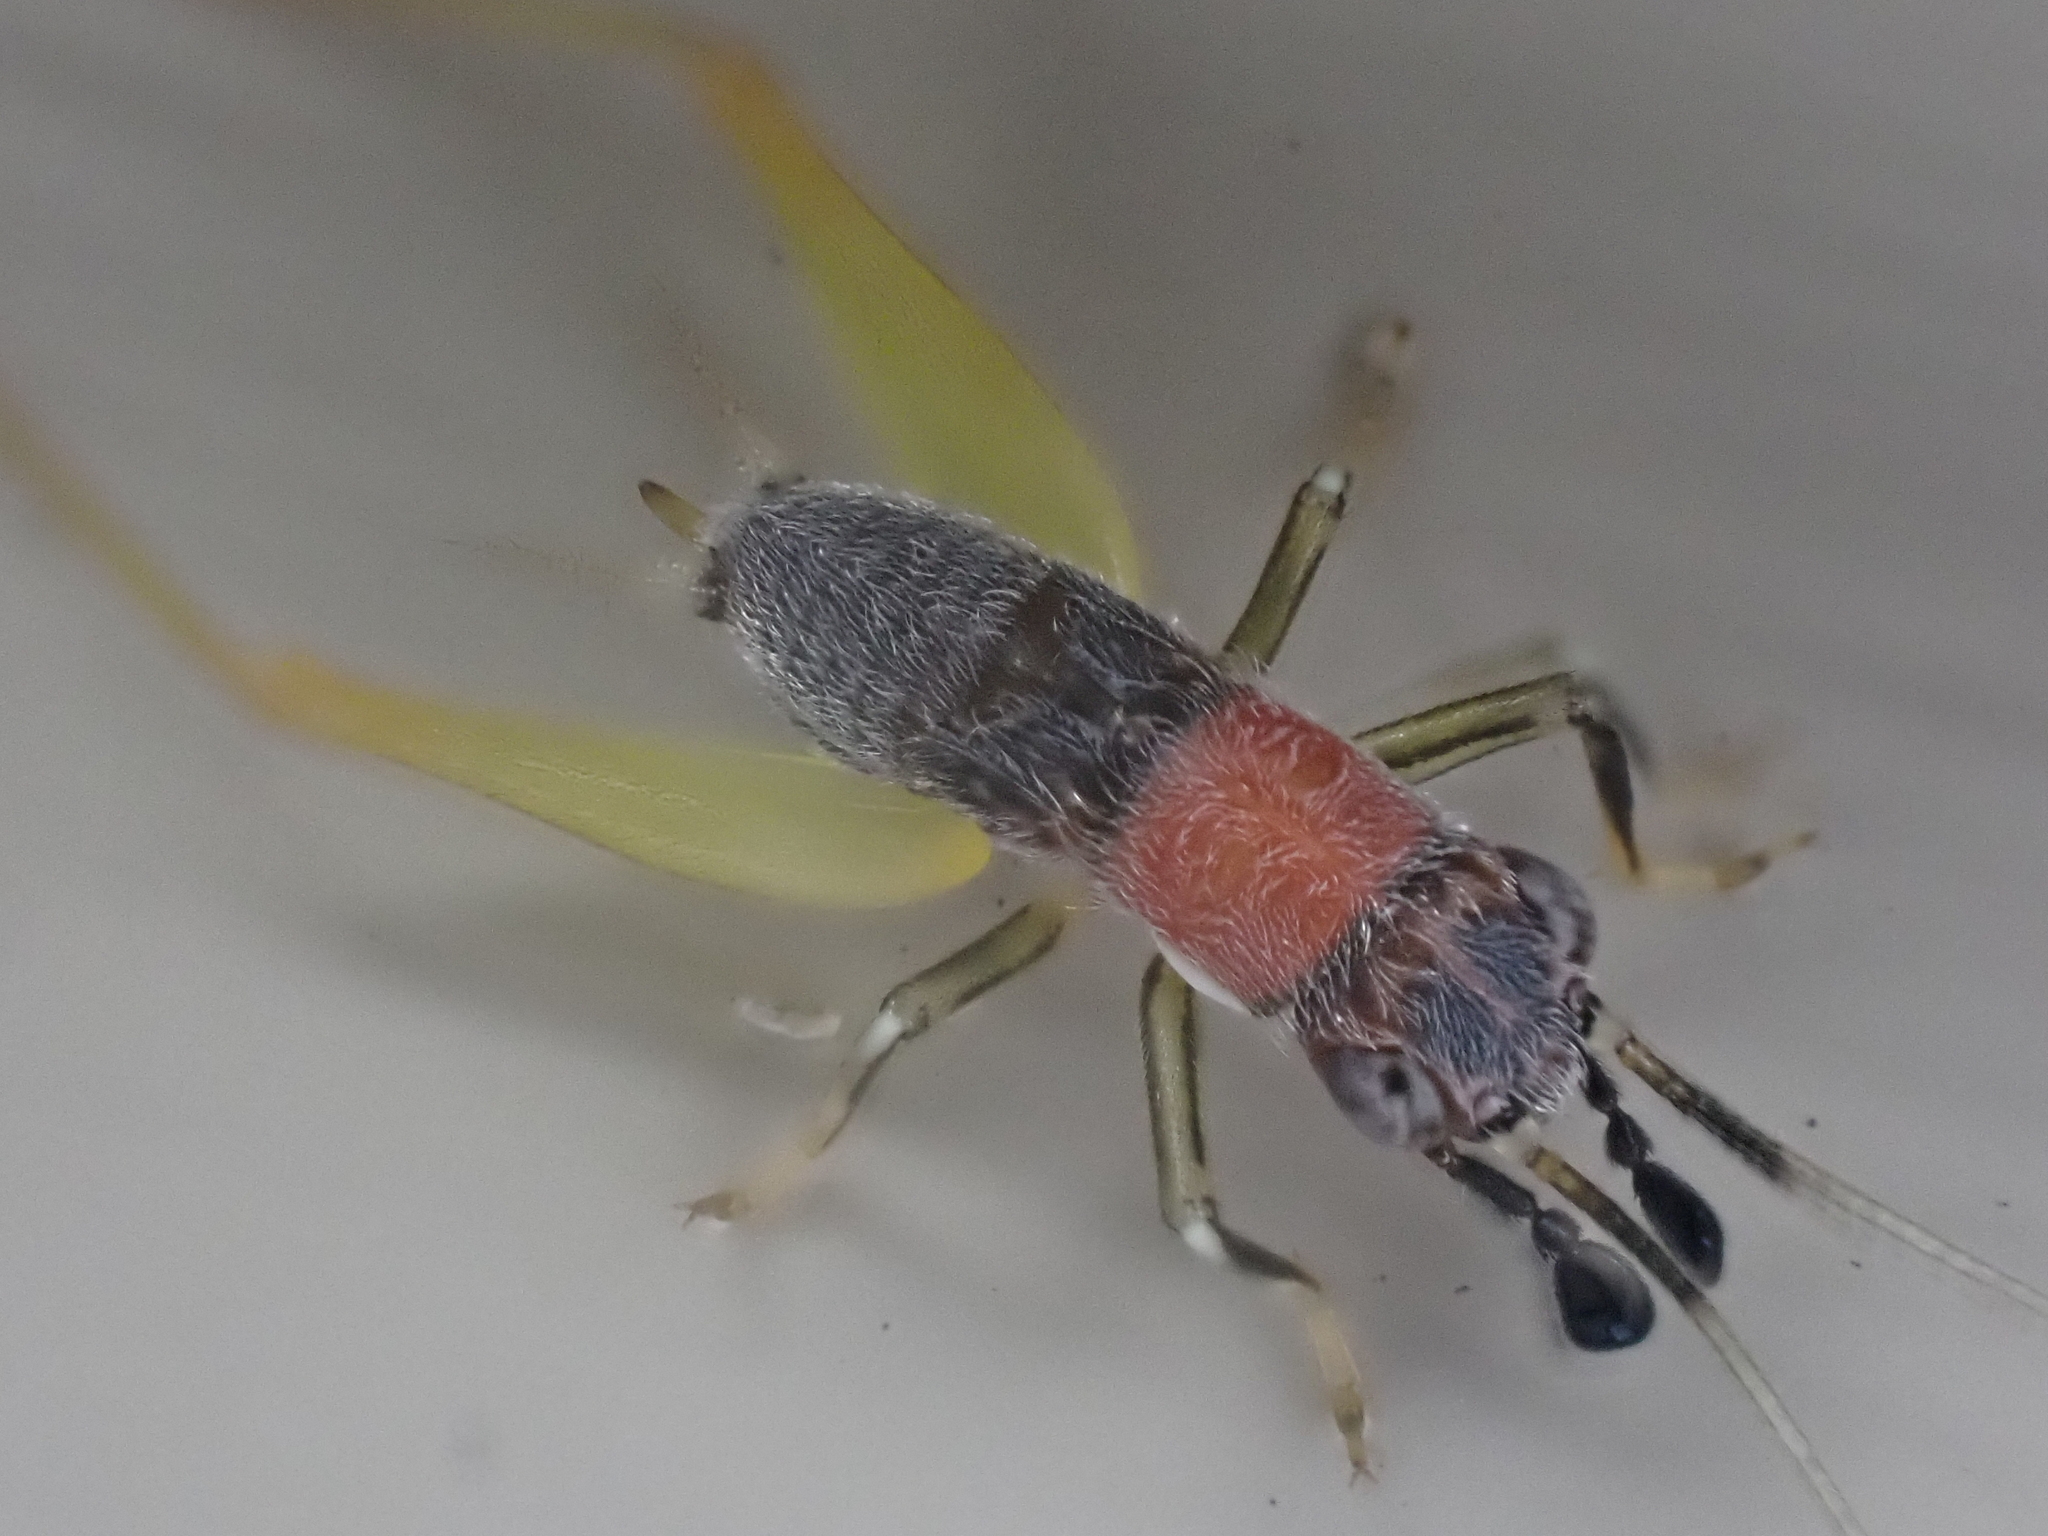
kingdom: Animalia
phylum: Arthropoda
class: Insecta
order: Orthoptera
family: Trigonidiidae
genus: Phyllopalpus
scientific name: Phyllopalpus pulchellus
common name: Handsome trig
